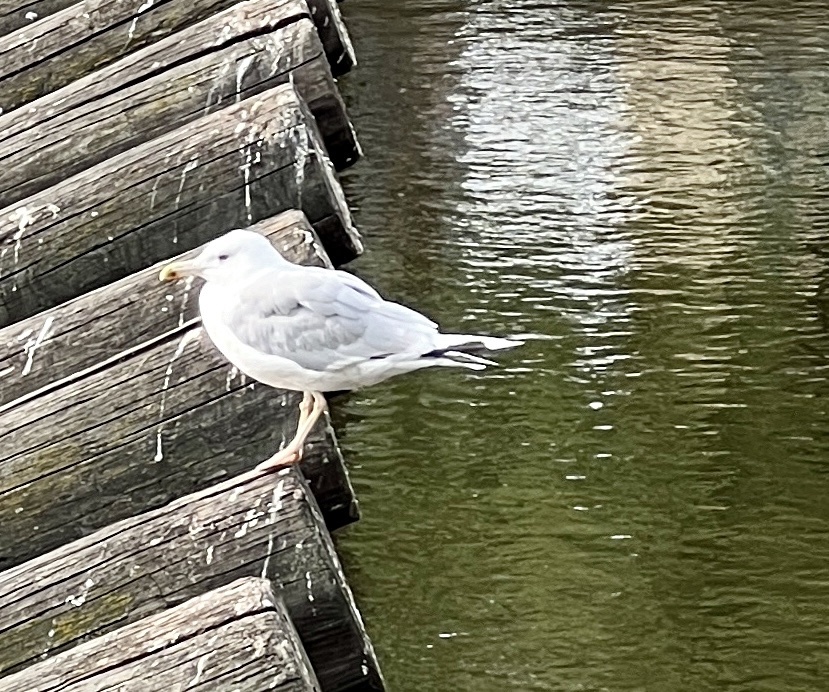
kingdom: Animalia
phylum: Chordata
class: Aves
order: Charadriiformes
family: Laridae
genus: Larus
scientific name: Larus cachinnans
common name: Caspian gull
